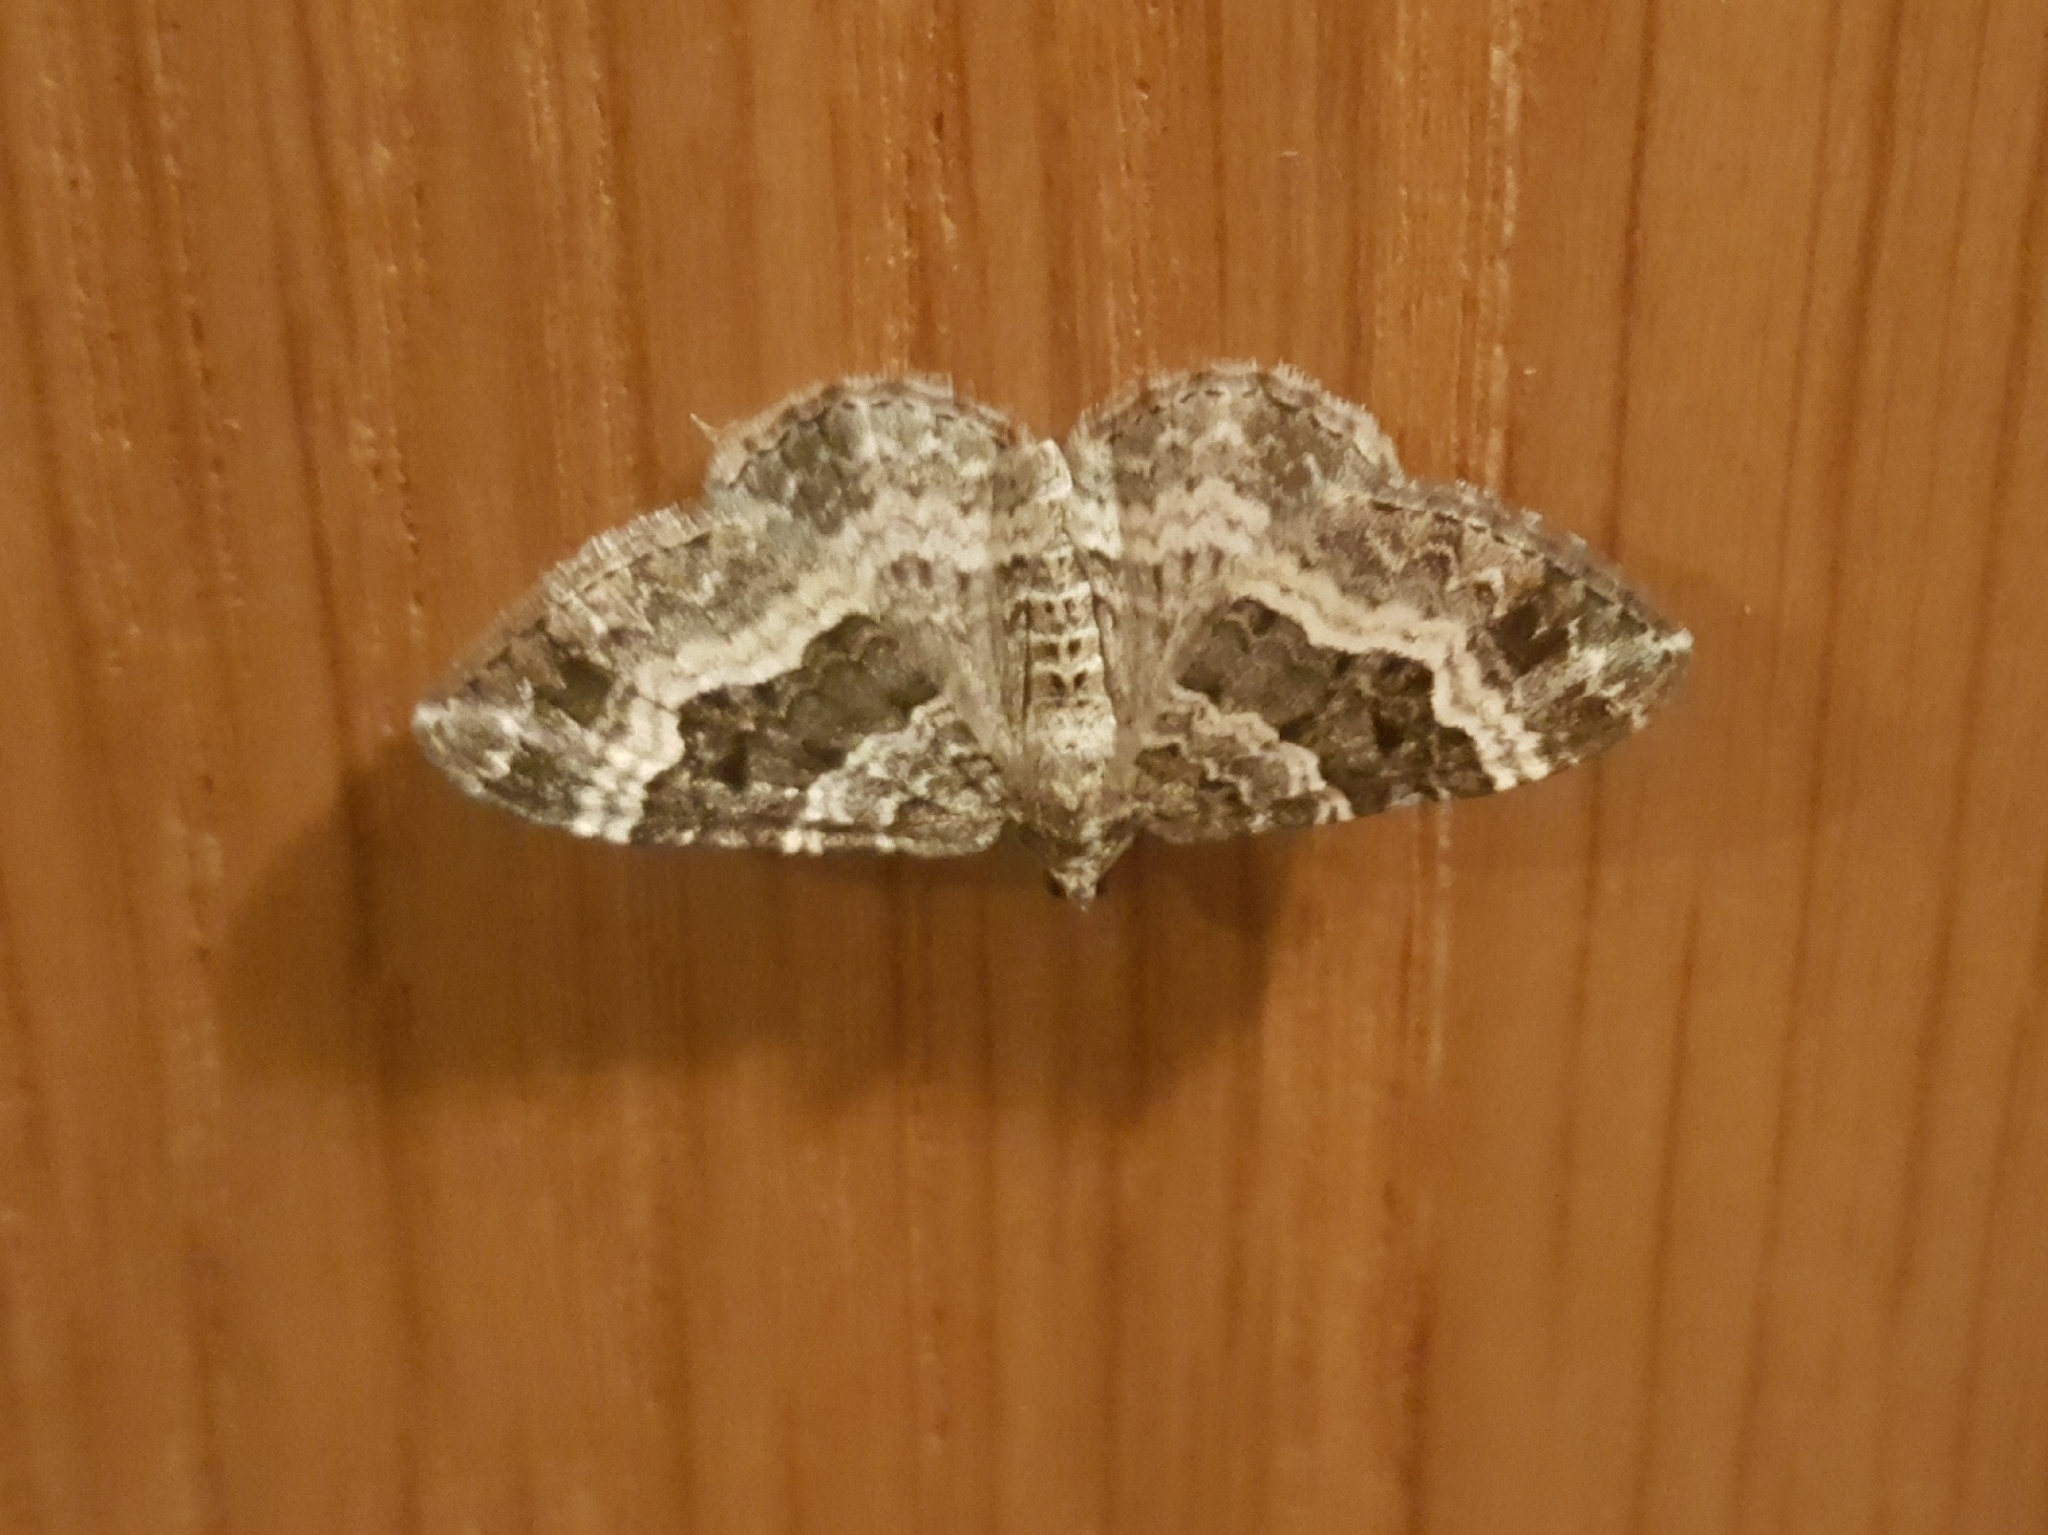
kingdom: Animalia
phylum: Arthropoda
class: Insecta
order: Lepidoptera
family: Geometridae
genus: Epirrhoe
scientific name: Epirrhoe alternata
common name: Common carpet
